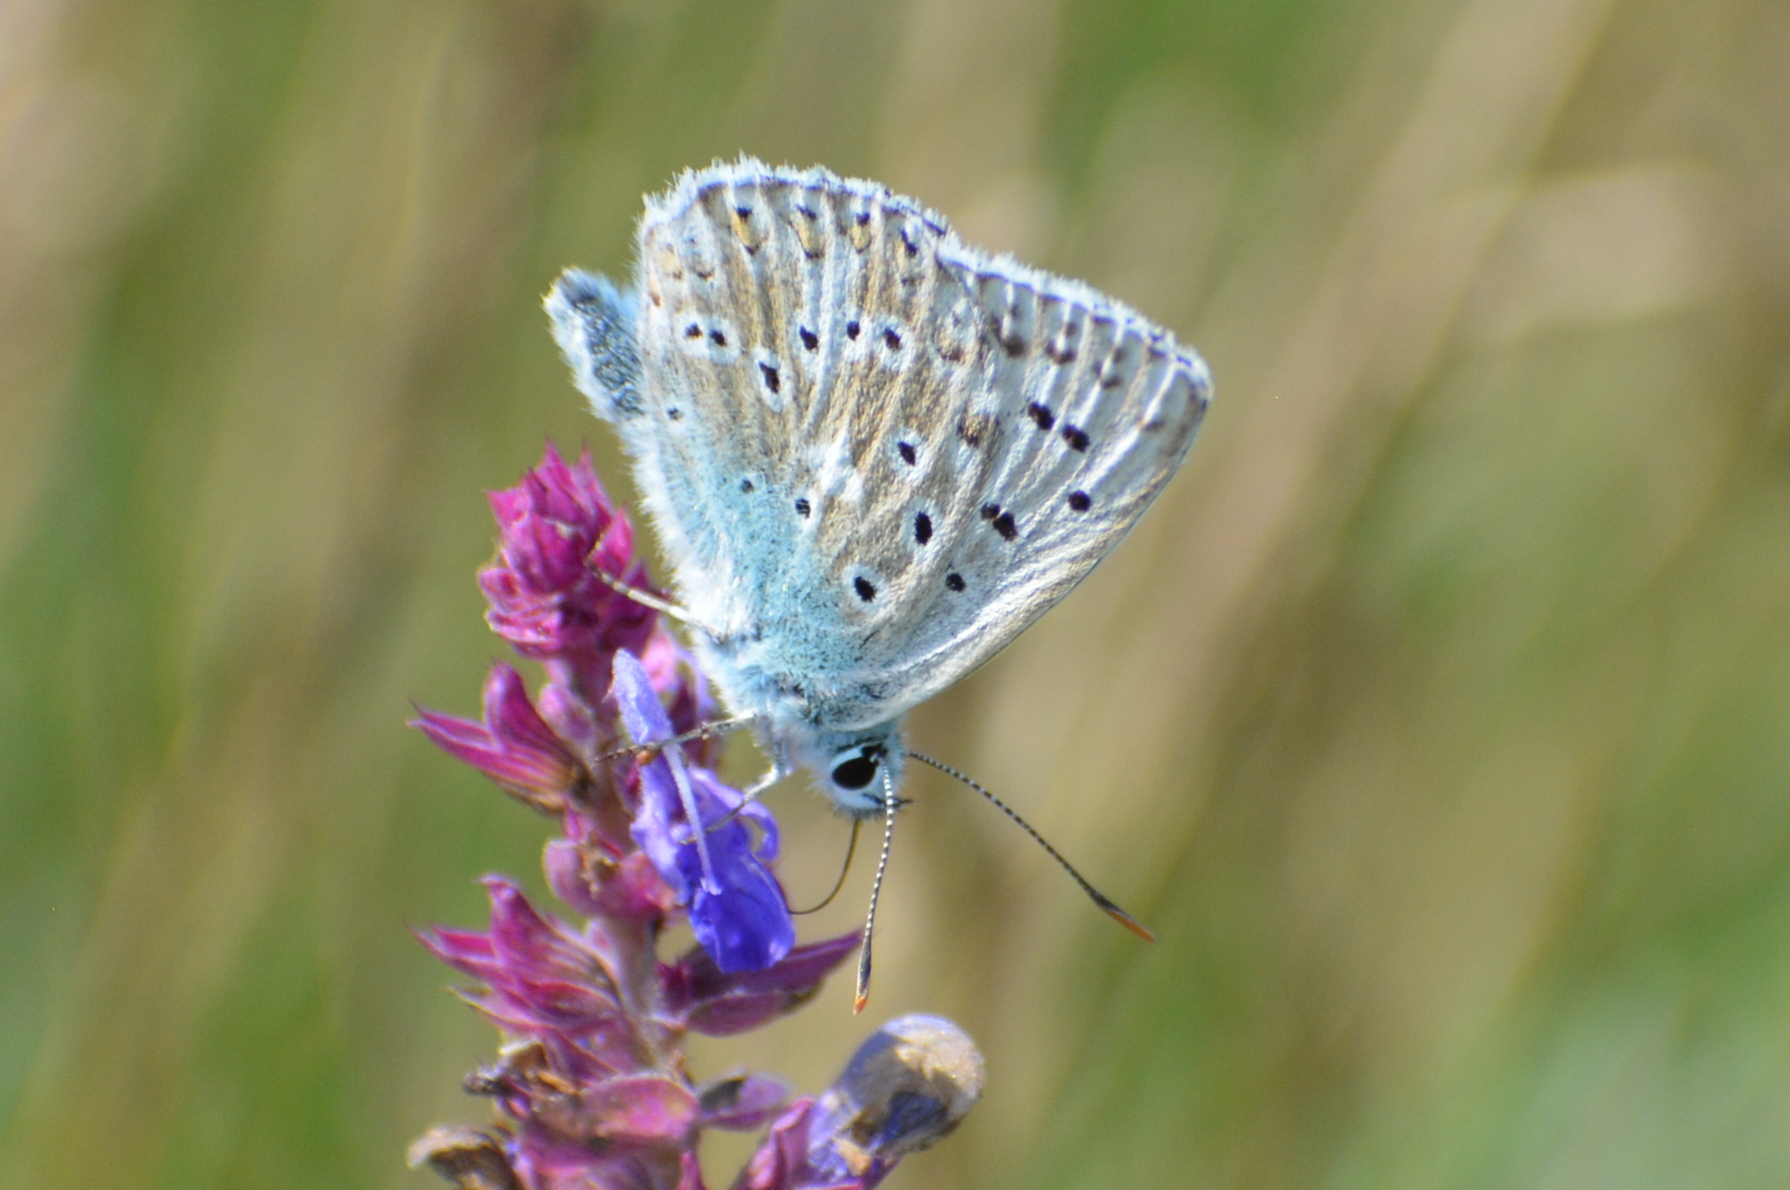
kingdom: Animalia
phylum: Arthropoda
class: Insecta
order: Lepidoptera
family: Lycaenidae
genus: Lysandra
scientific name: Lysandra coridon
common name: Chalkhill blue
